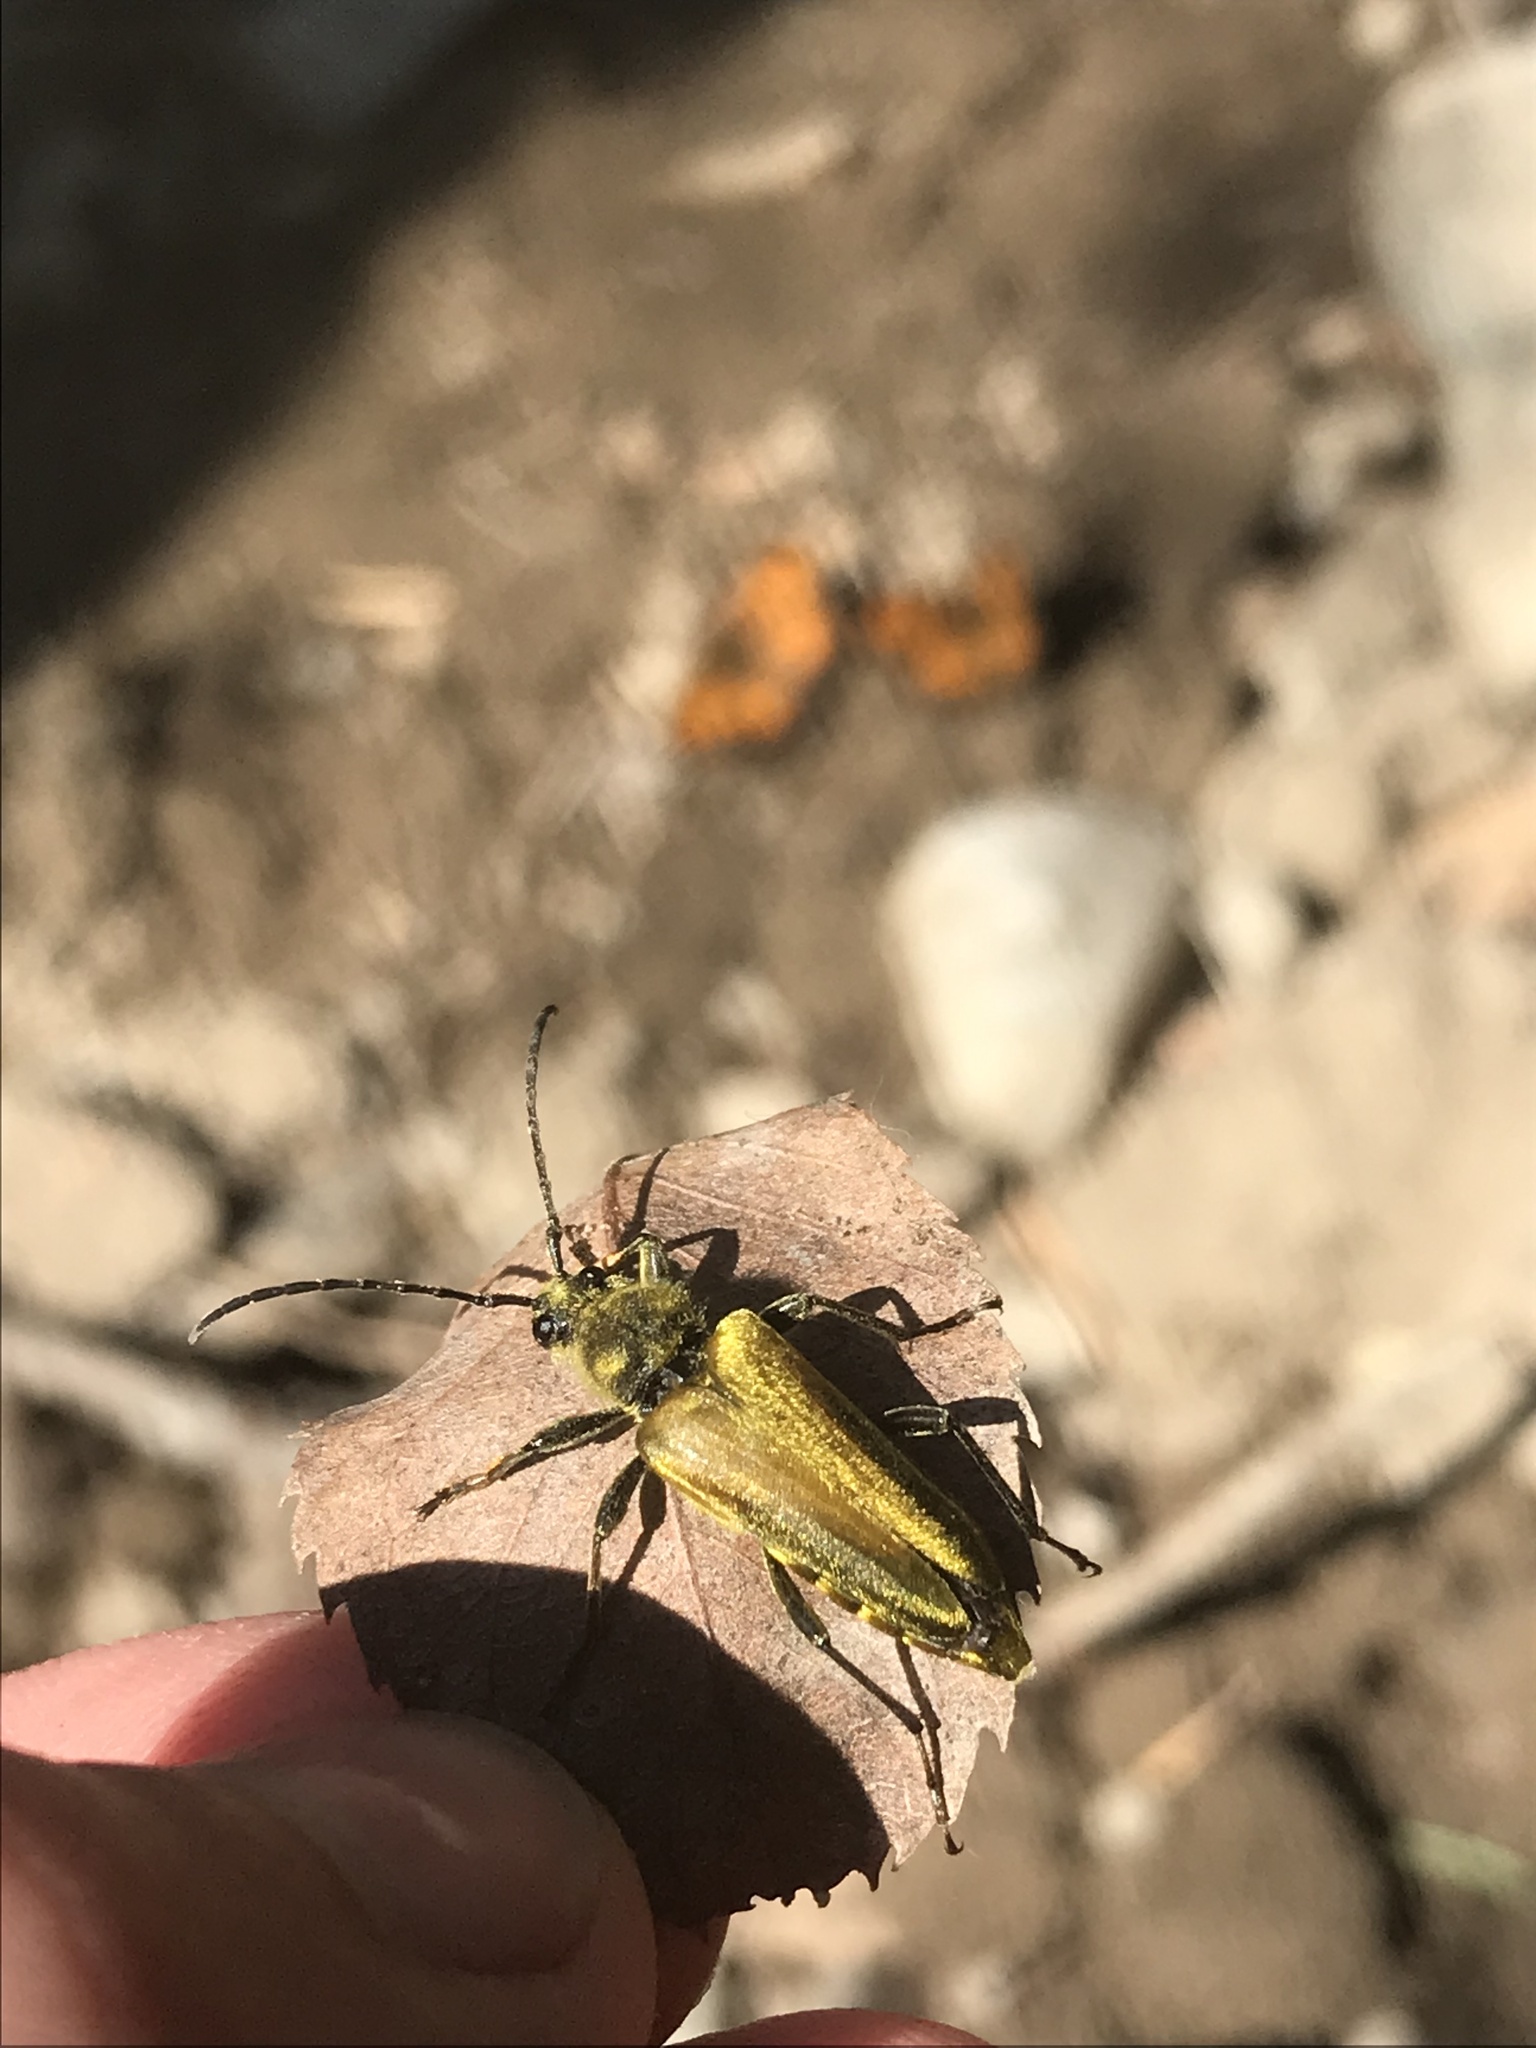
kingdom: Animalia
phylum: Arthropoda
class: Insecta
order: Coleoptera
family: Cerambycidae
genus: Cosmosalia
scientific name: Cosmosalia chrysocoma
